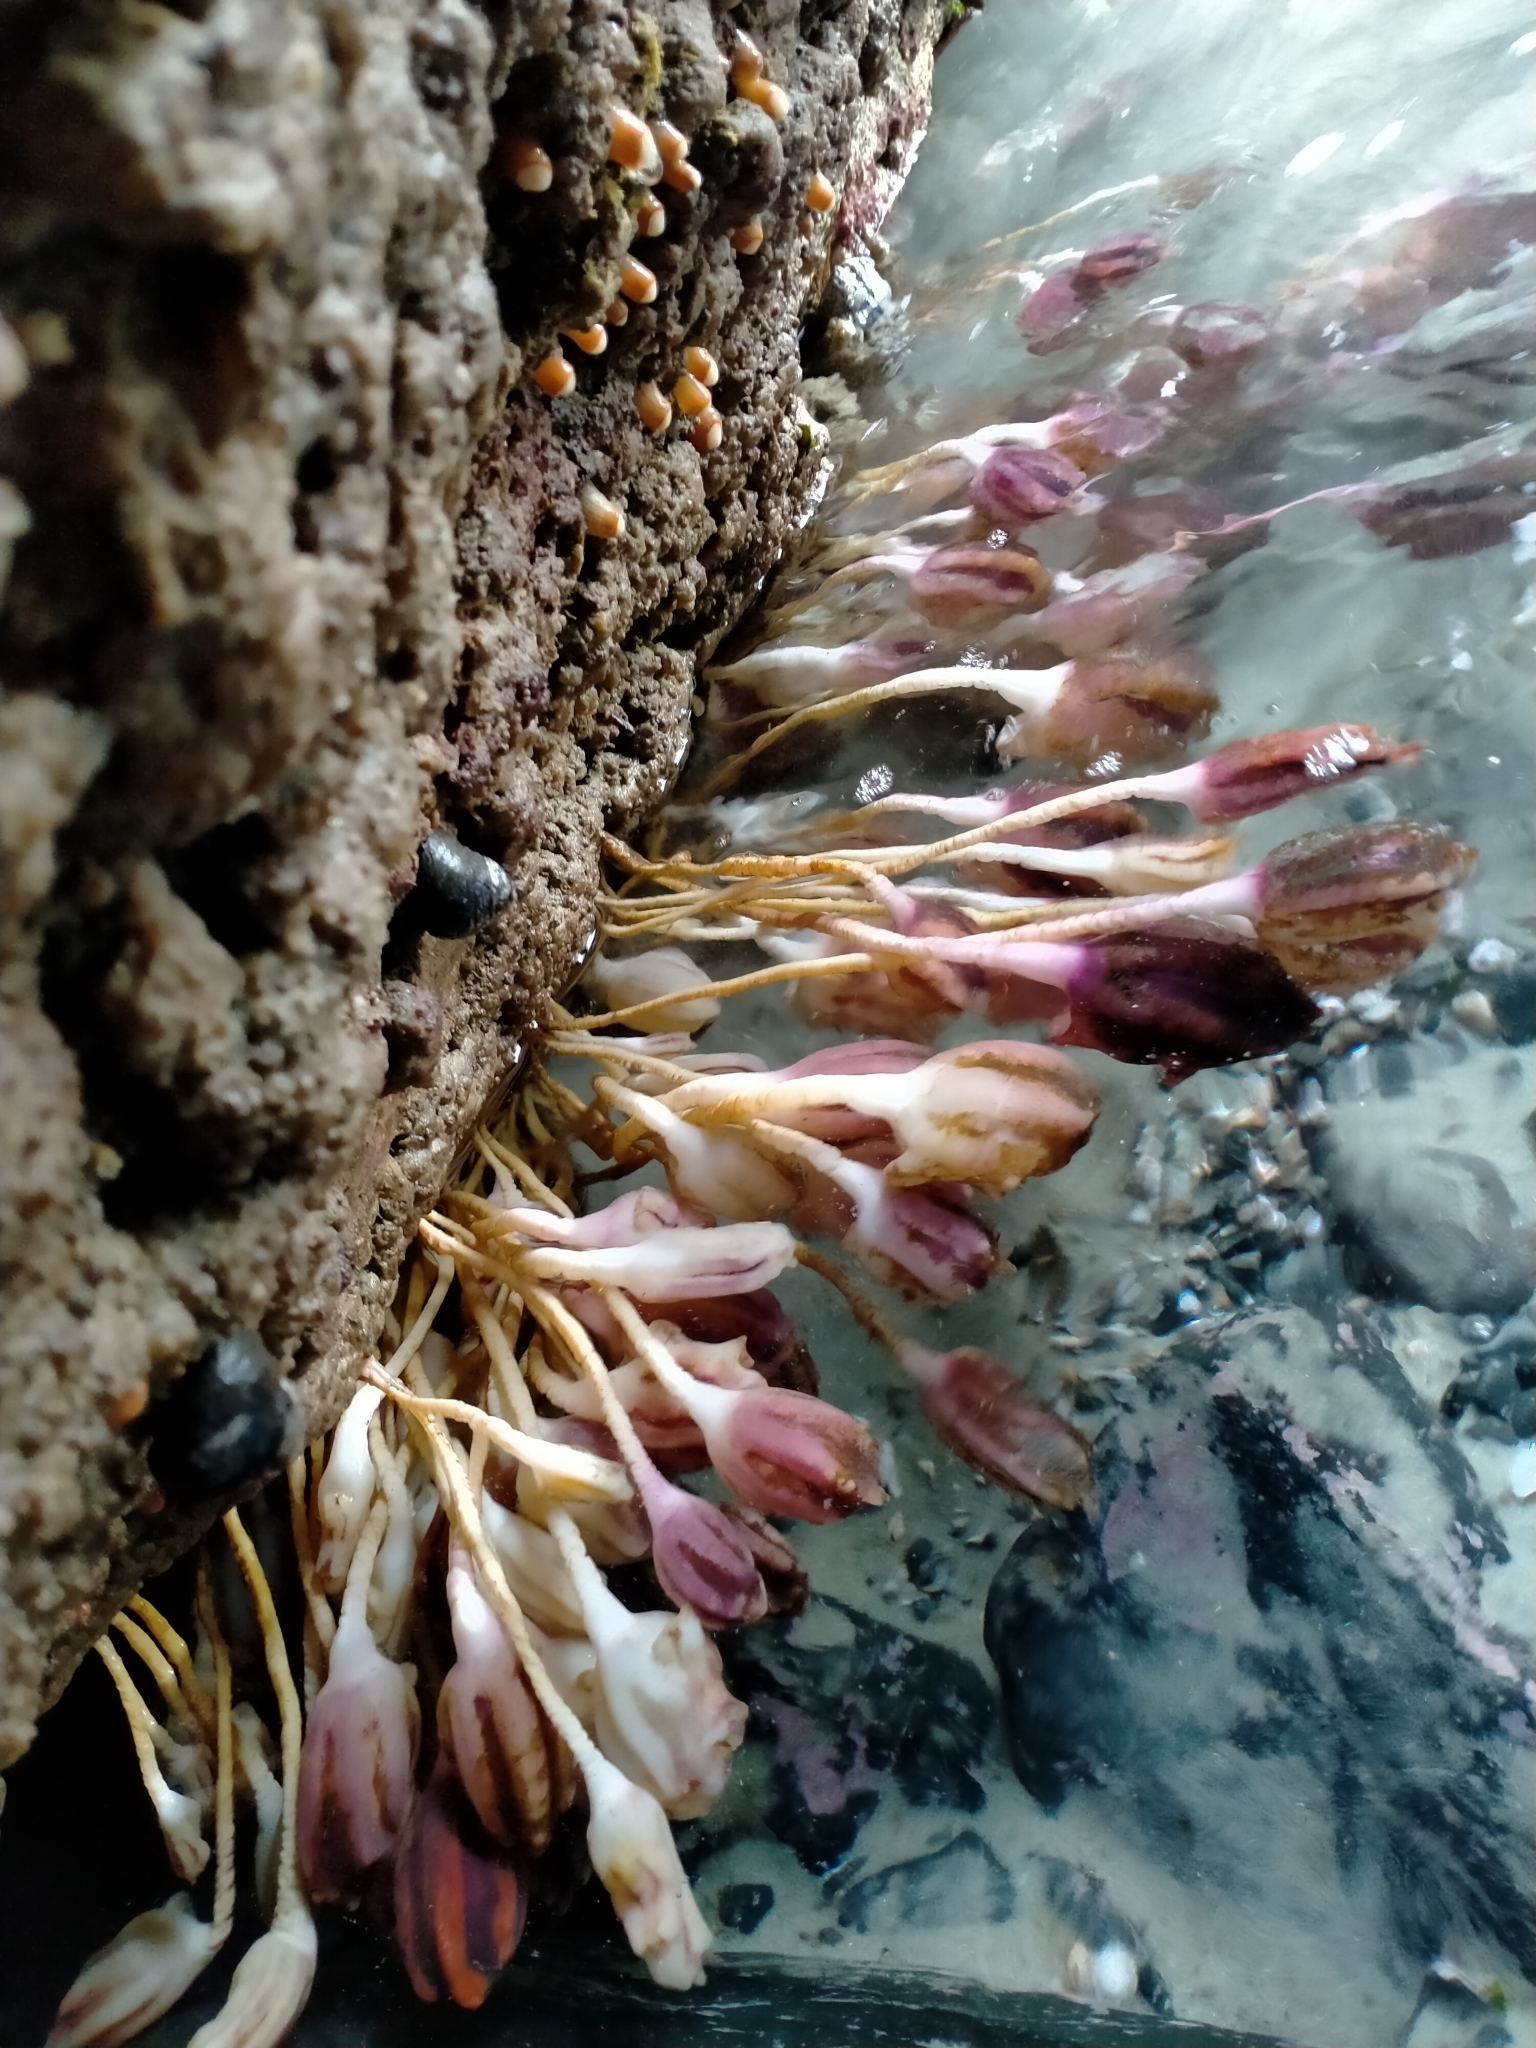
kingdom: Animalia
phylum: Chordata
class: Ascidiacea
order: Stolidobranchia
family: Pyuridae
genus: Pyura
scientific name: Pyura pachydermatina
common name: Sea tulip
